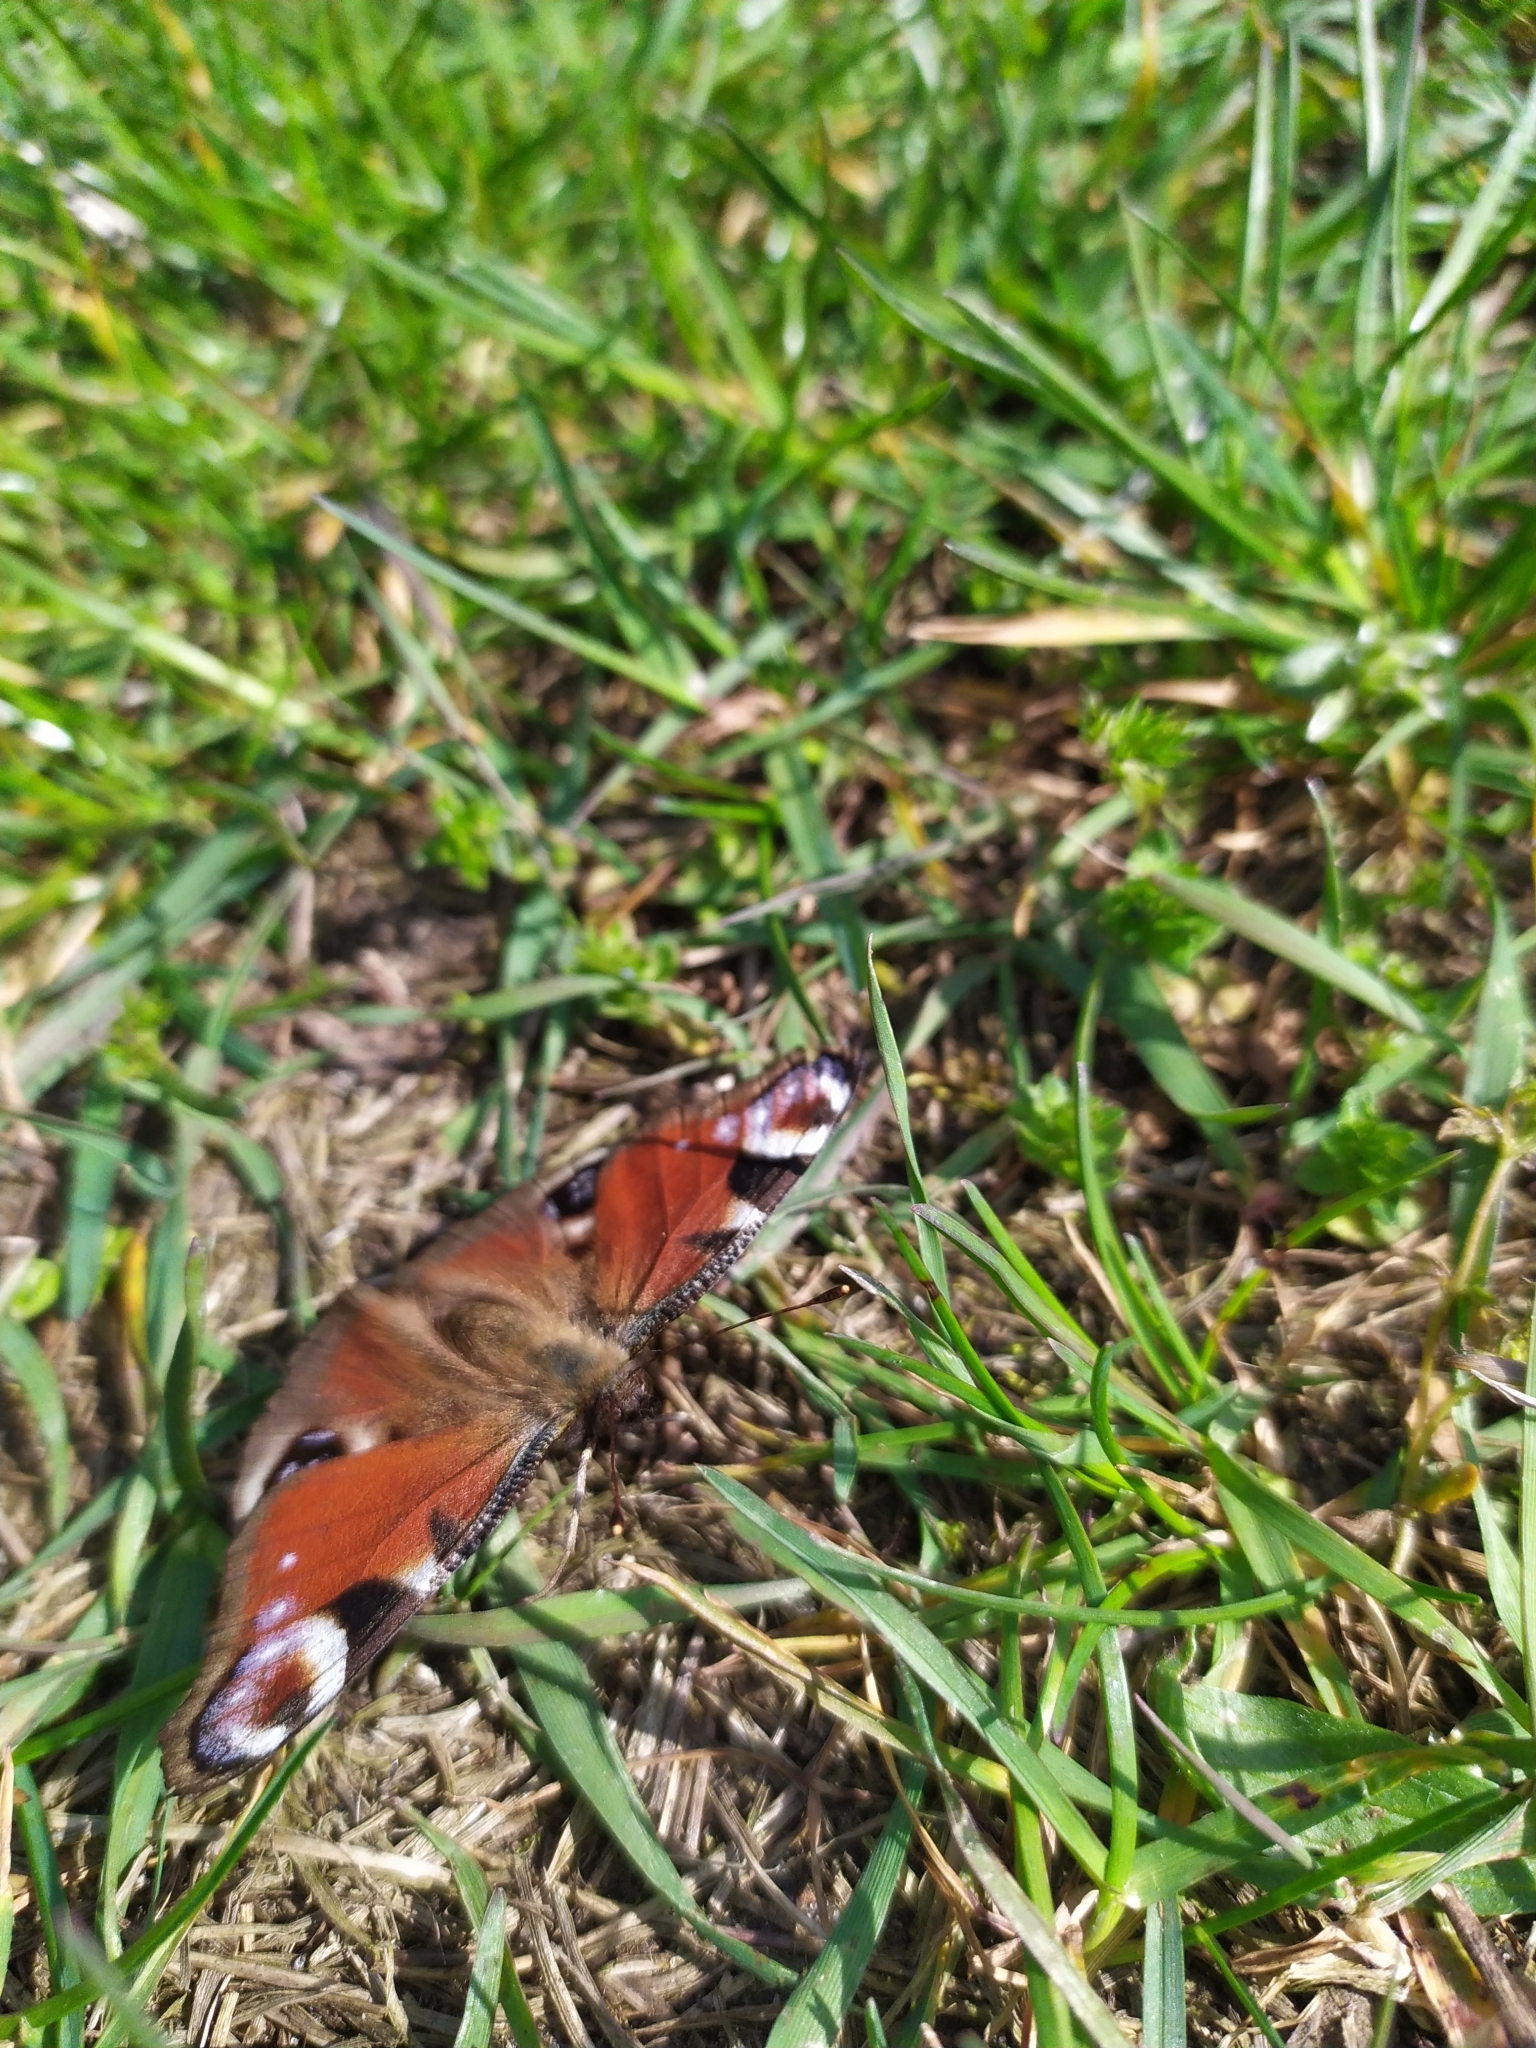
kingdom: Animalia
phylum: Arthropoda
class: Insecta
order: Lepidoptera
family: Nymphalidae
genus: Aglais
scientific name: Aglais io
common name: Peacock
